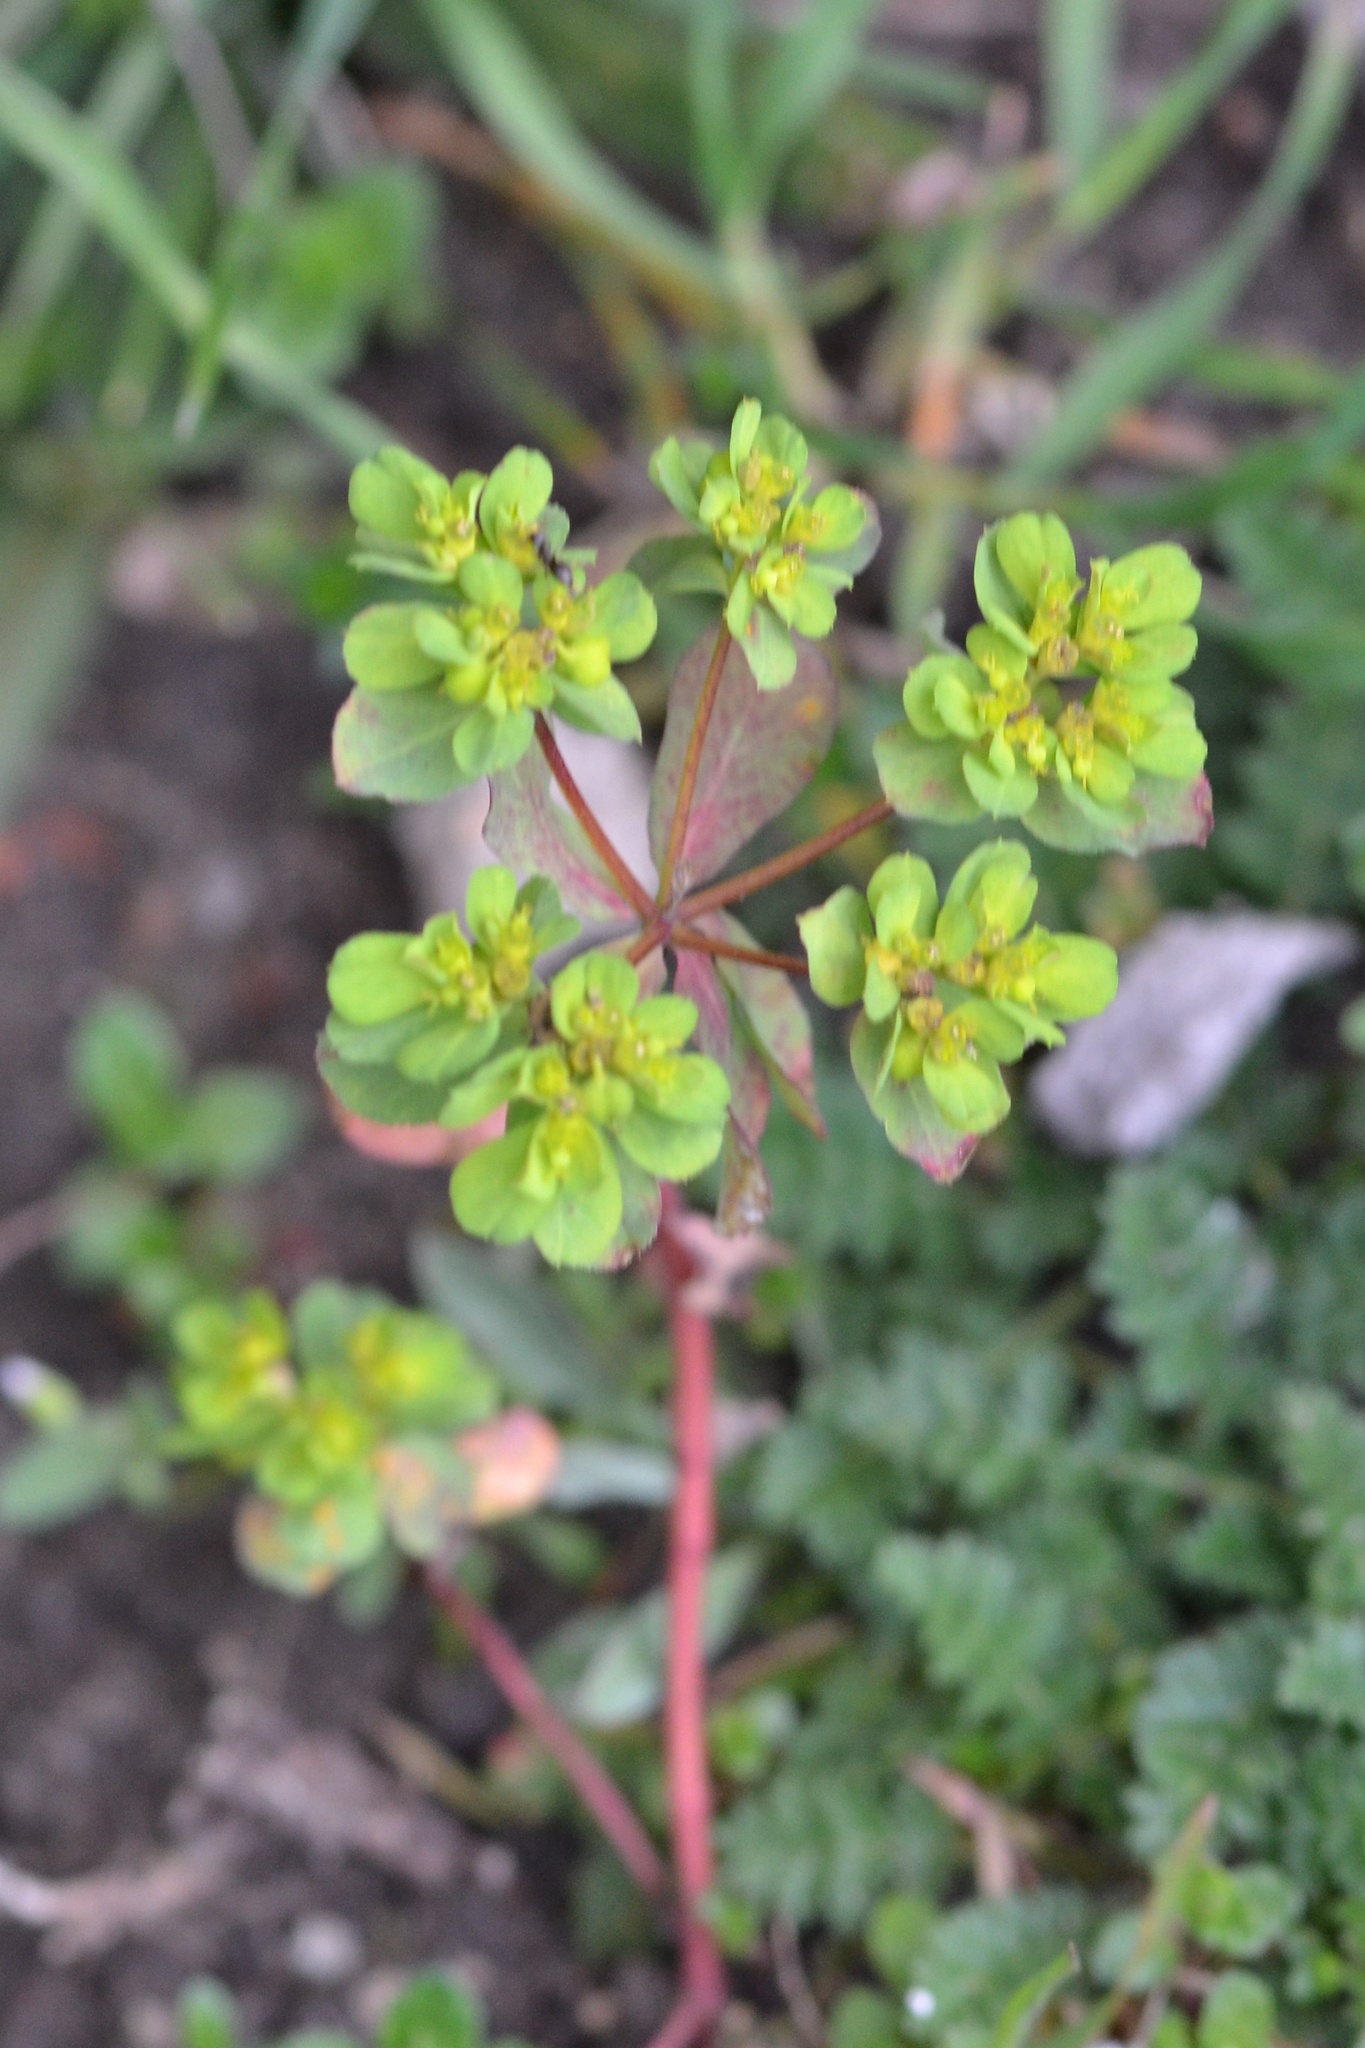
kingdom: Plantae
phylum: Tracheophyta
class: Magnoliopsida
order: Malpighiales
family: Euphorbiaceae
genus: Euphorbia
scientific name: Euphorbia helioscopia
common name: Sun spurge
